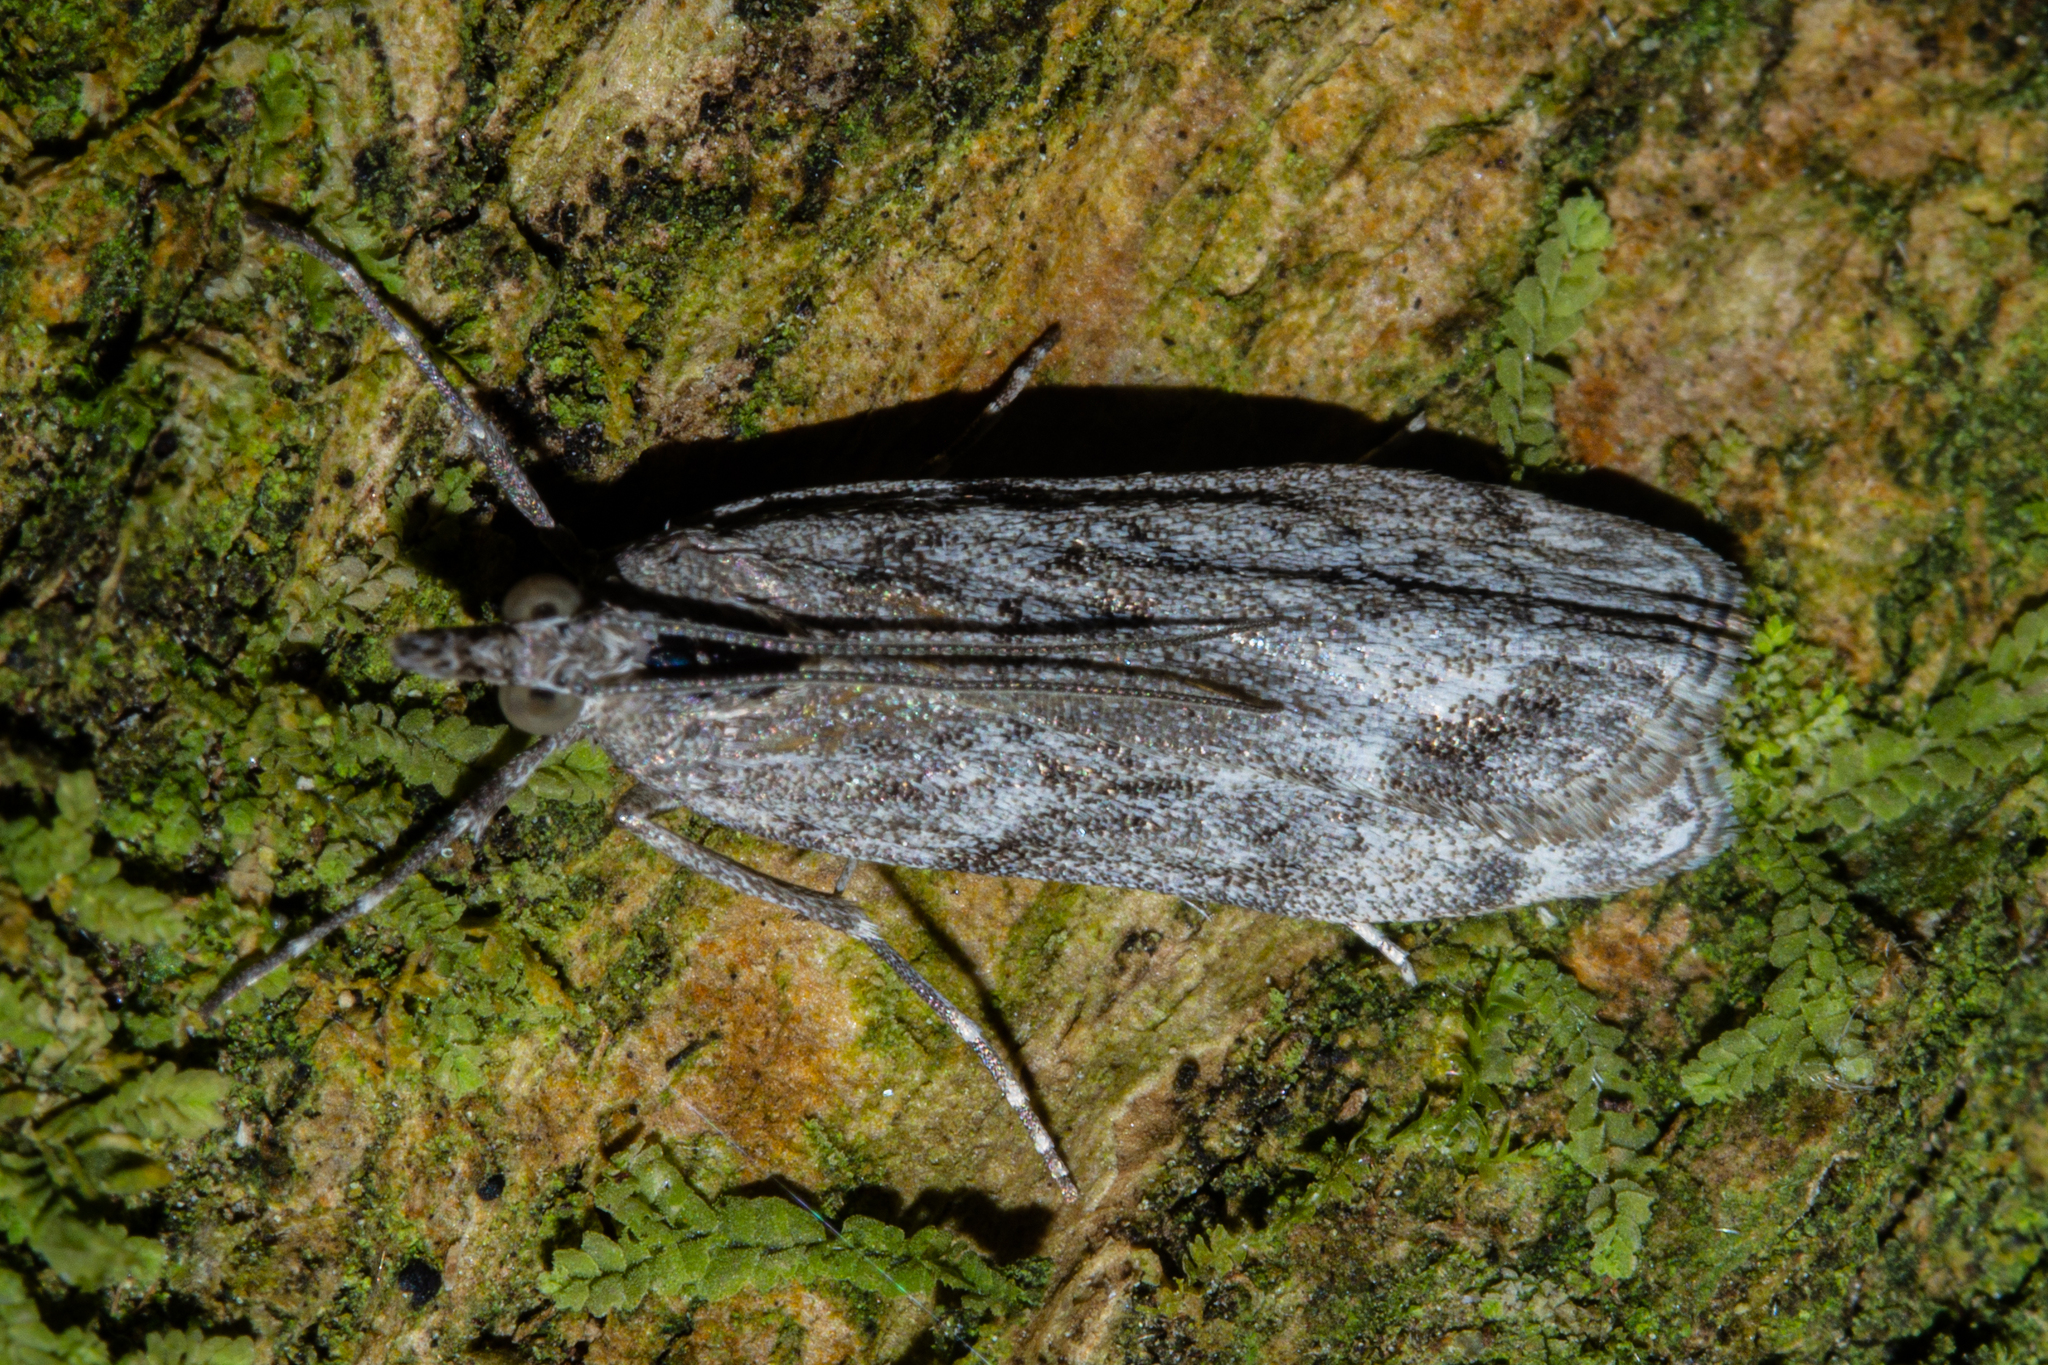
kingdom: Animalia
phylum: Arthropoda
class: Insecta
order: Lepidoptera
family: Crambidae
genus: Eudonia
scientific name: Eudonia rakaiensis
